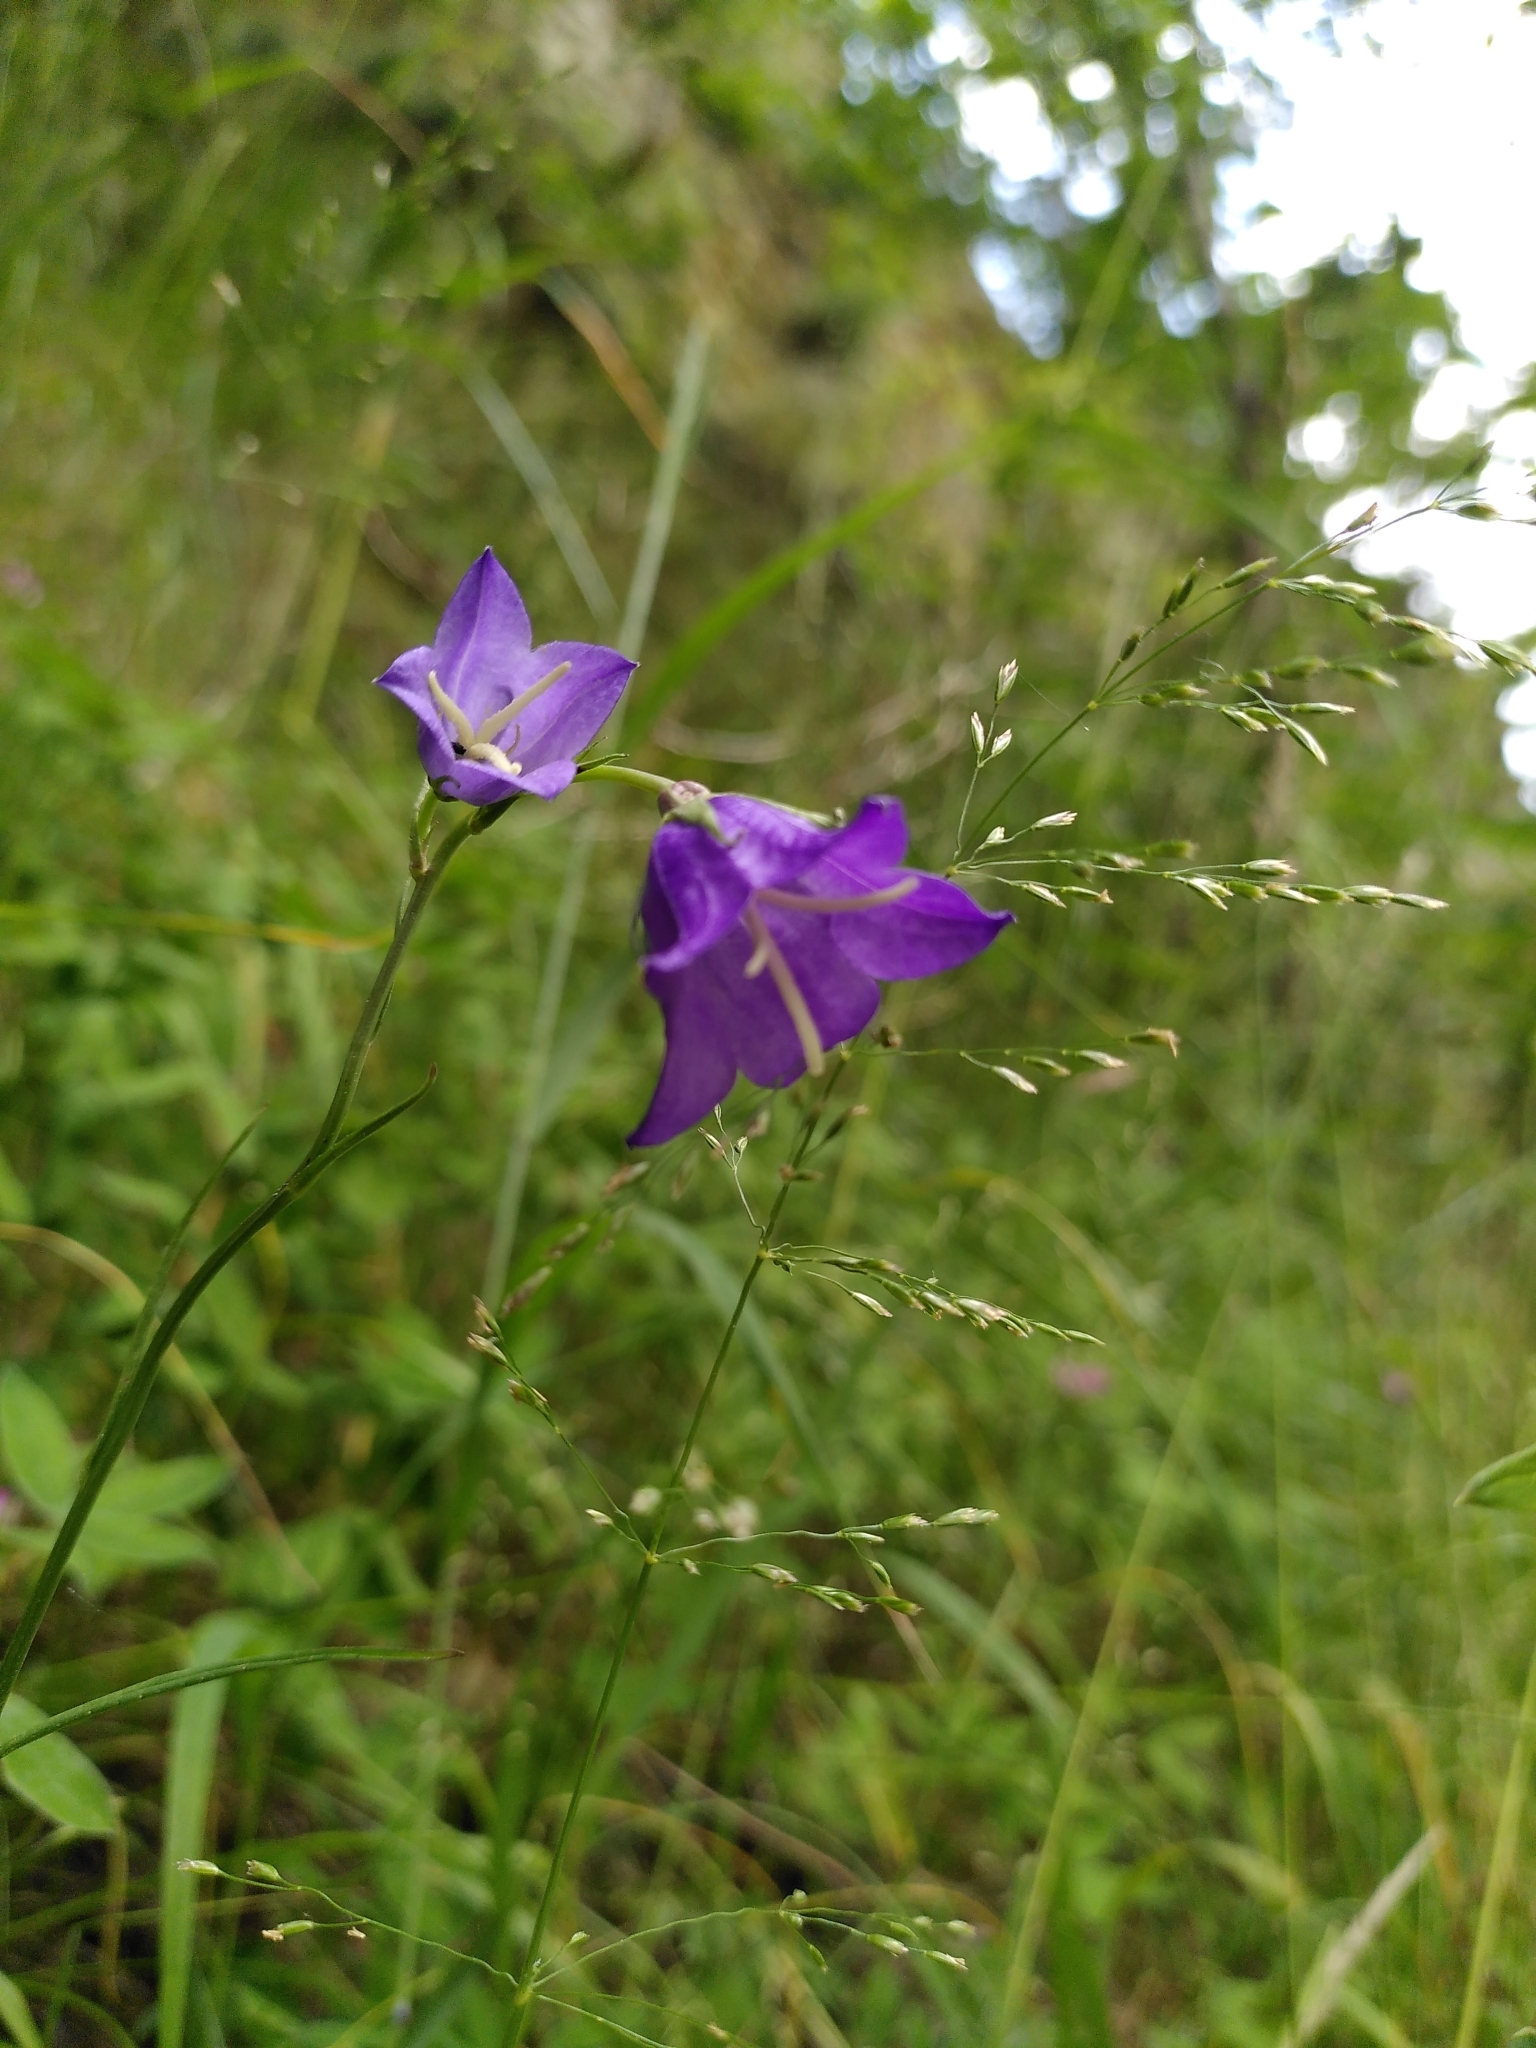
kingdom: Plantae
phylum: Tracheophyta
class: Magnoliopsida
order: Asterales
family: Campanulaceae
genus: Campanula
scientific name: Campanula persicifolia
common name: Peach-leaved bellflower
